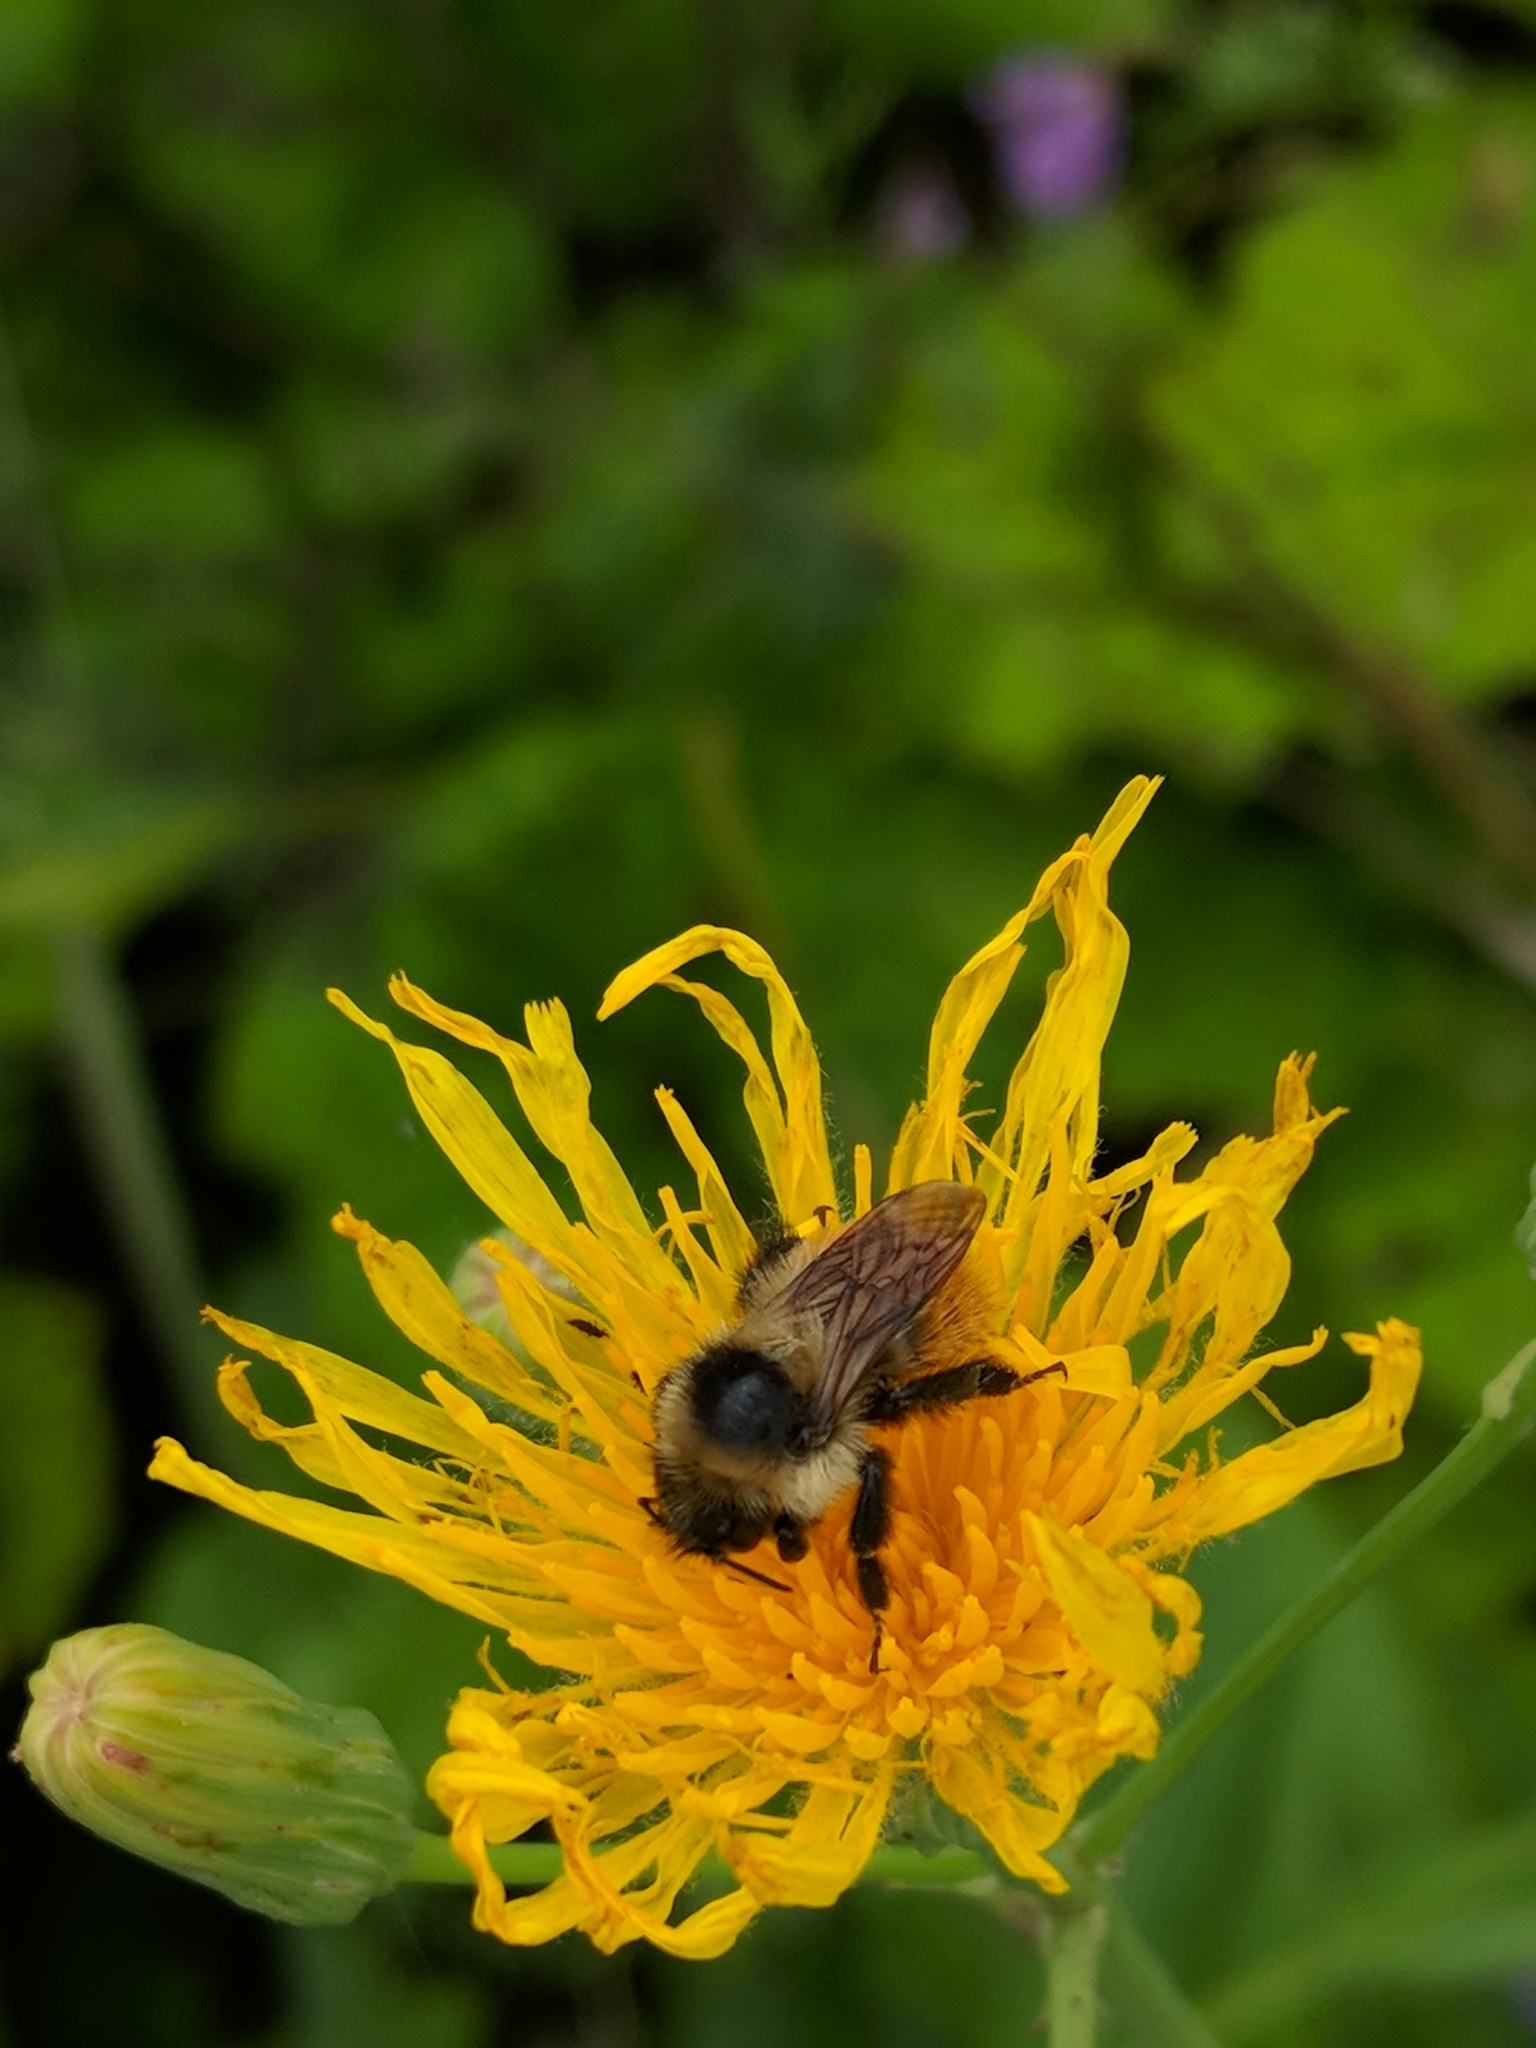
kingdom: Animalia
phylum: Arthropoda
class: Insecta
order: Hymenoptera
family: Apidae
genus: Bombus
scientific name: Bombus rufocinctus
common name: Red-belted bumble bee
